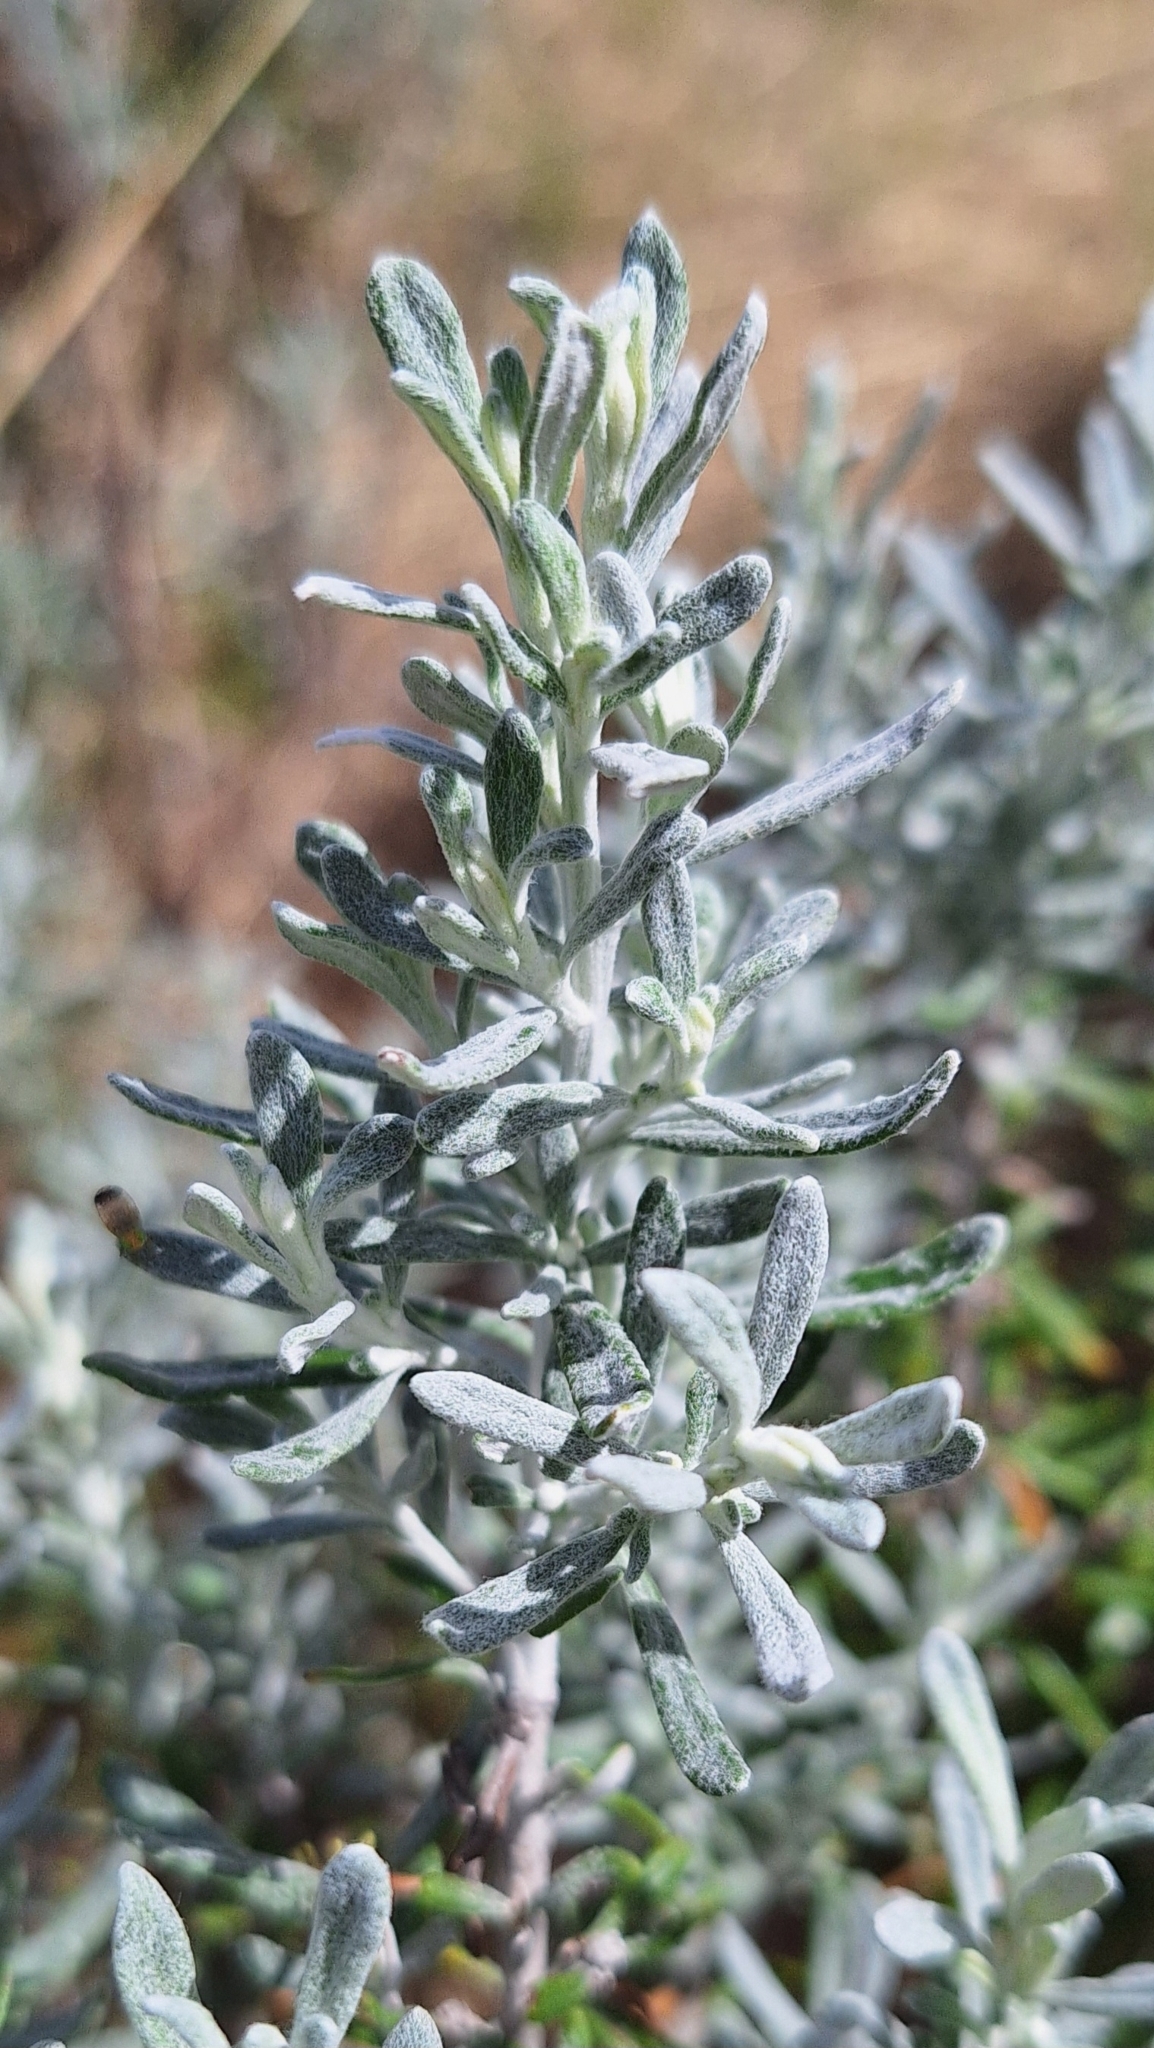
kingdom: Plantae
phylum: Tracheophyta
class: Magnoliopsida
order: Asterales
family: Asteraceae
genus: Olearia
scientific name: Olearia axillaris
